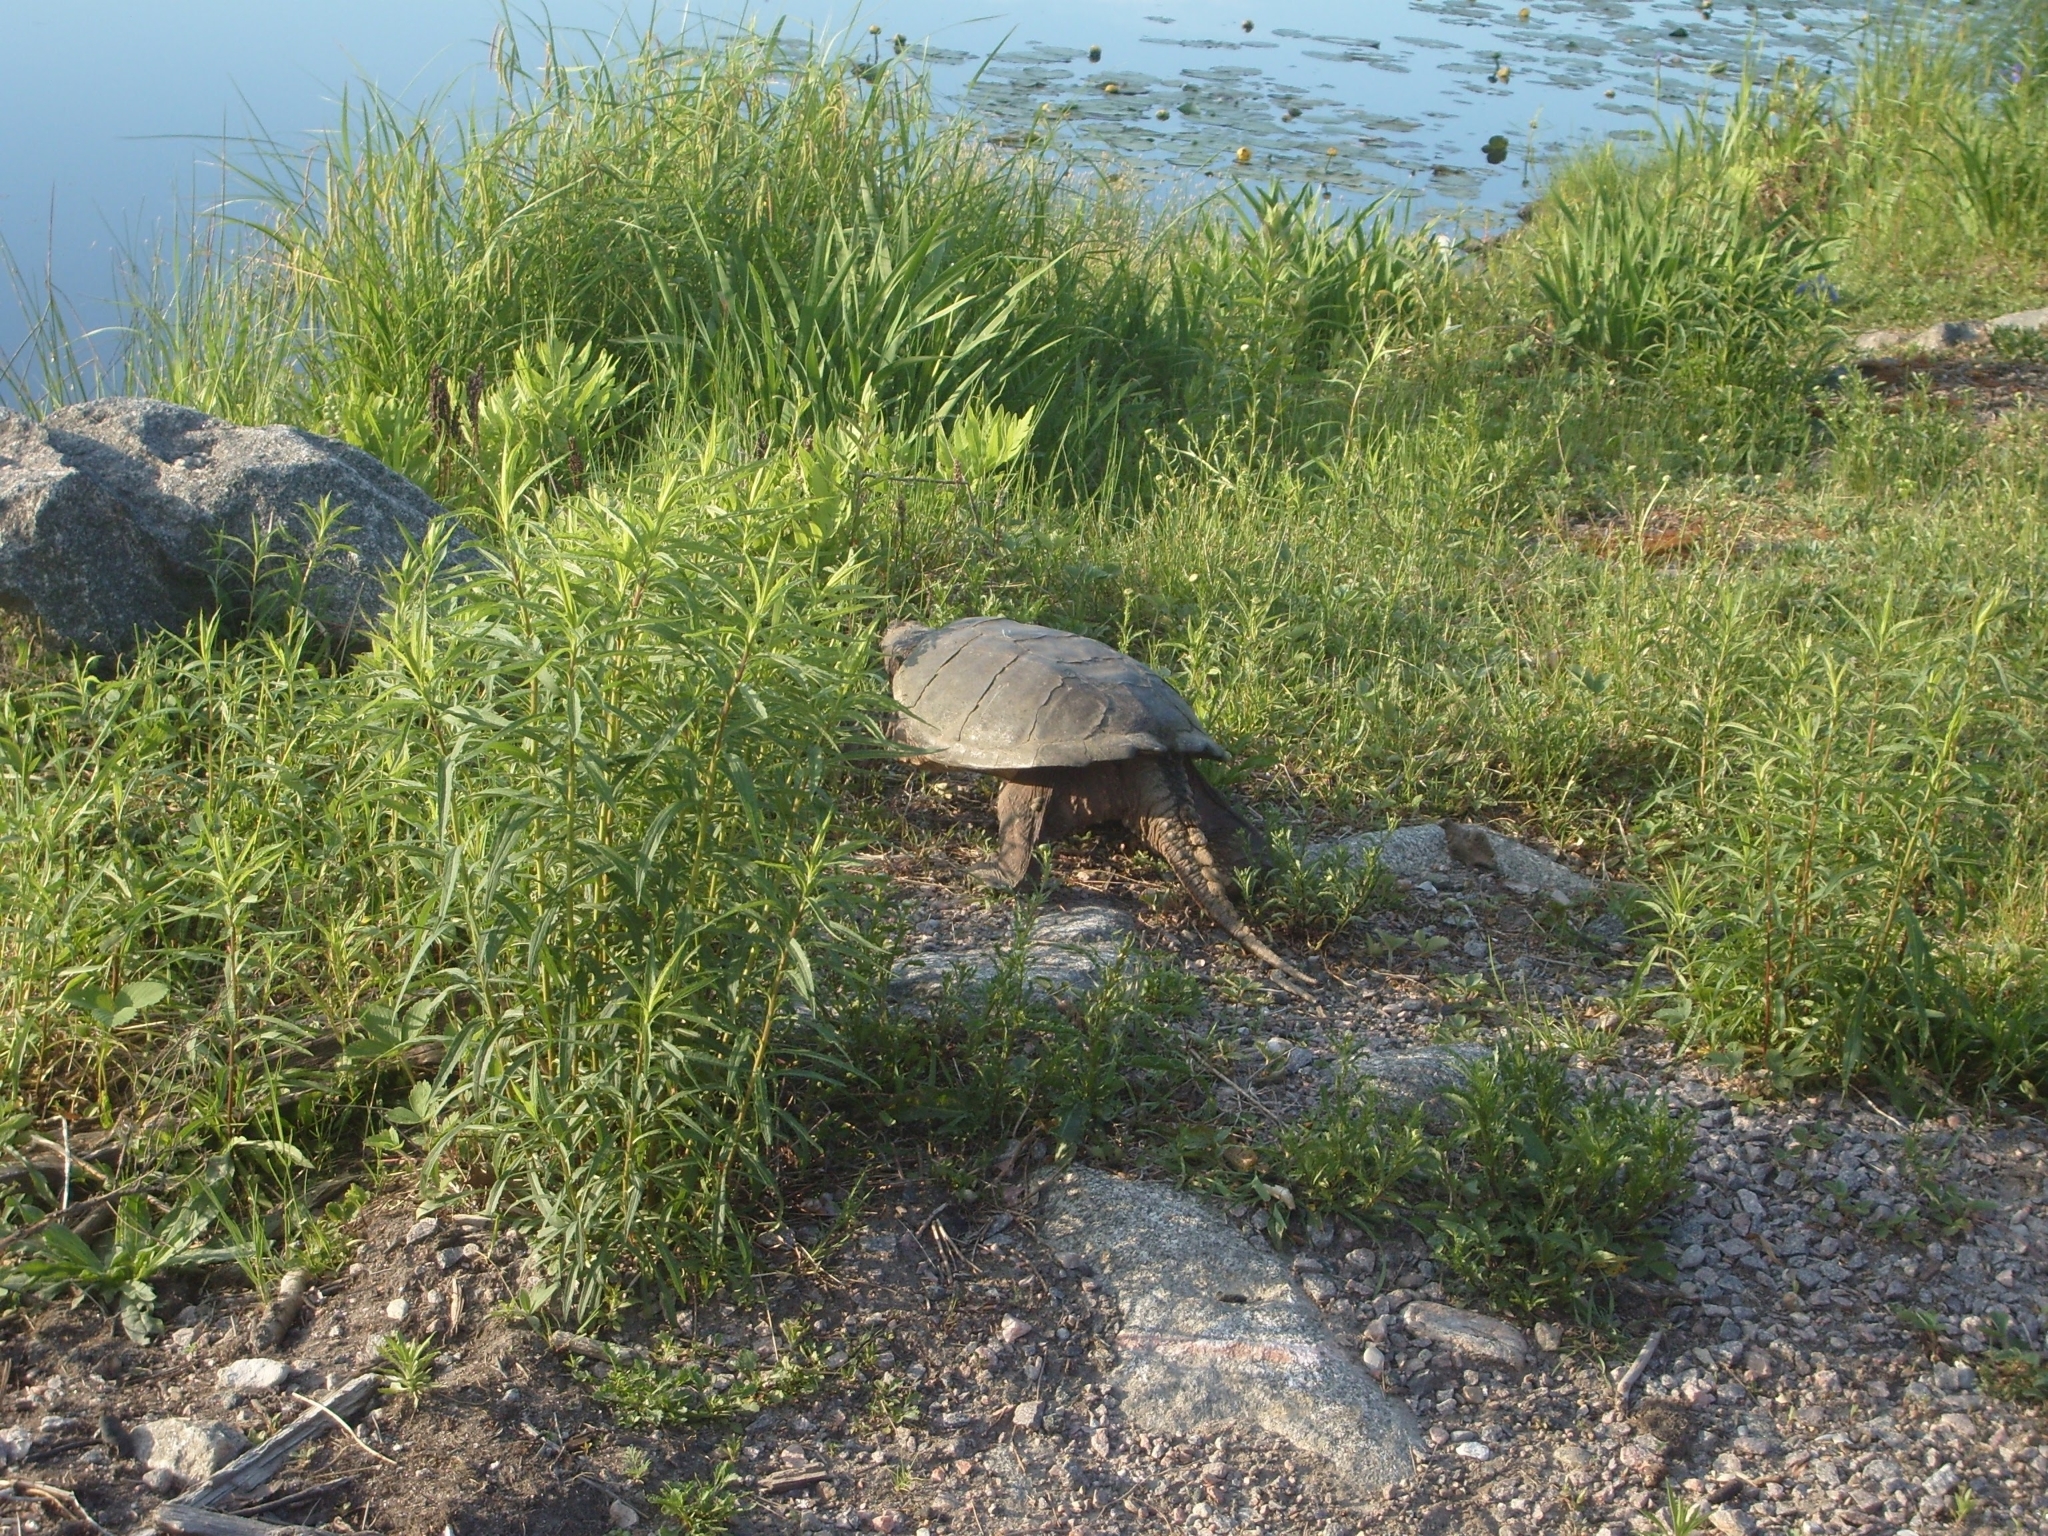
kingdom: Animalia
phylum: Chordata
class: Testudines
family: Chelydridae
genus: Chelydra
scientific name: Chelydra serpentina
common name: Common snapping turtle
